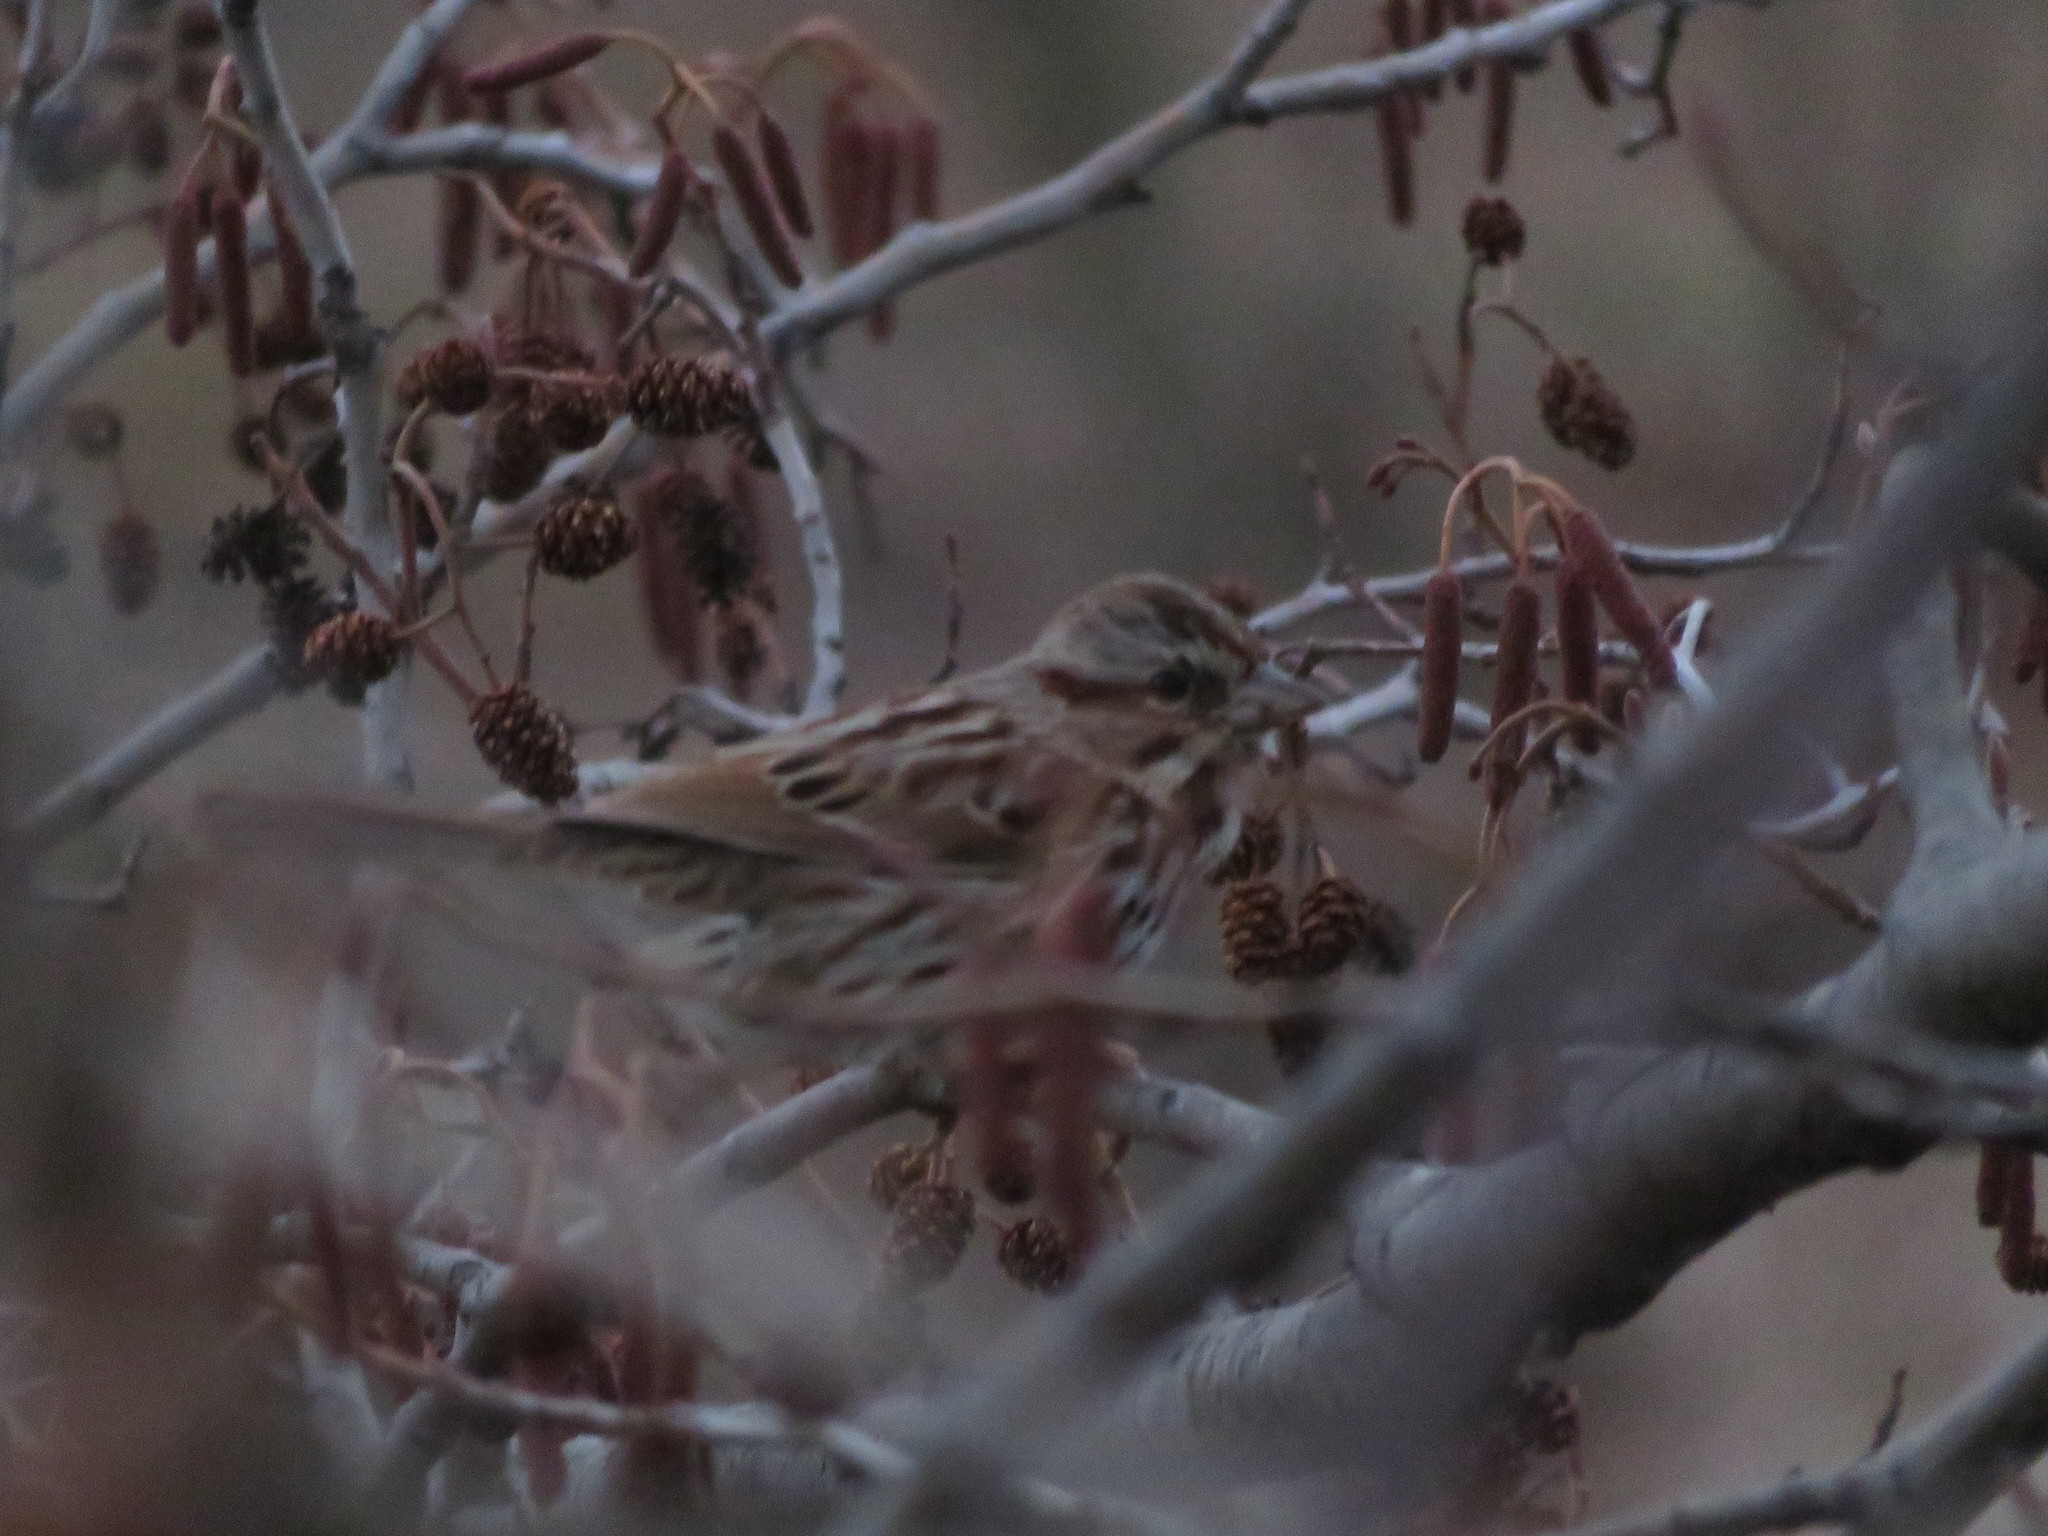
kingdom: Animalia
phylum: Chordata
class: Aves
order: Passeriformes
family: Passerellidae
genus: Melospiza
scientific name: Melospiza melodia
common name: Song sparrow
